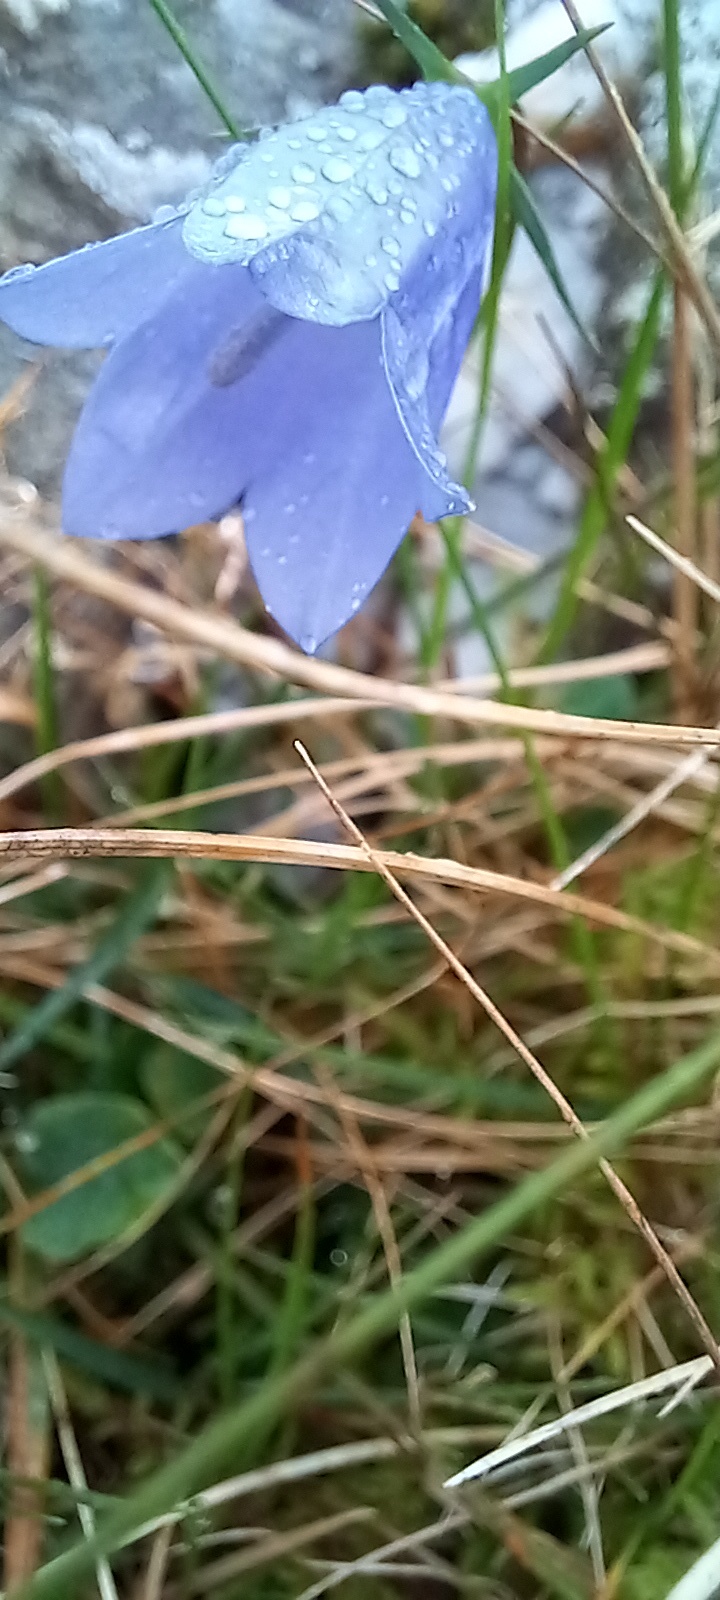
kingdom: Plantae
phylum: Tracheophyta
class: Magnoliopsida
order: Asterales
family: Campanulaceae
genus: Campanula
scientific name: Campanula rotundifolia
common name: Harebell
